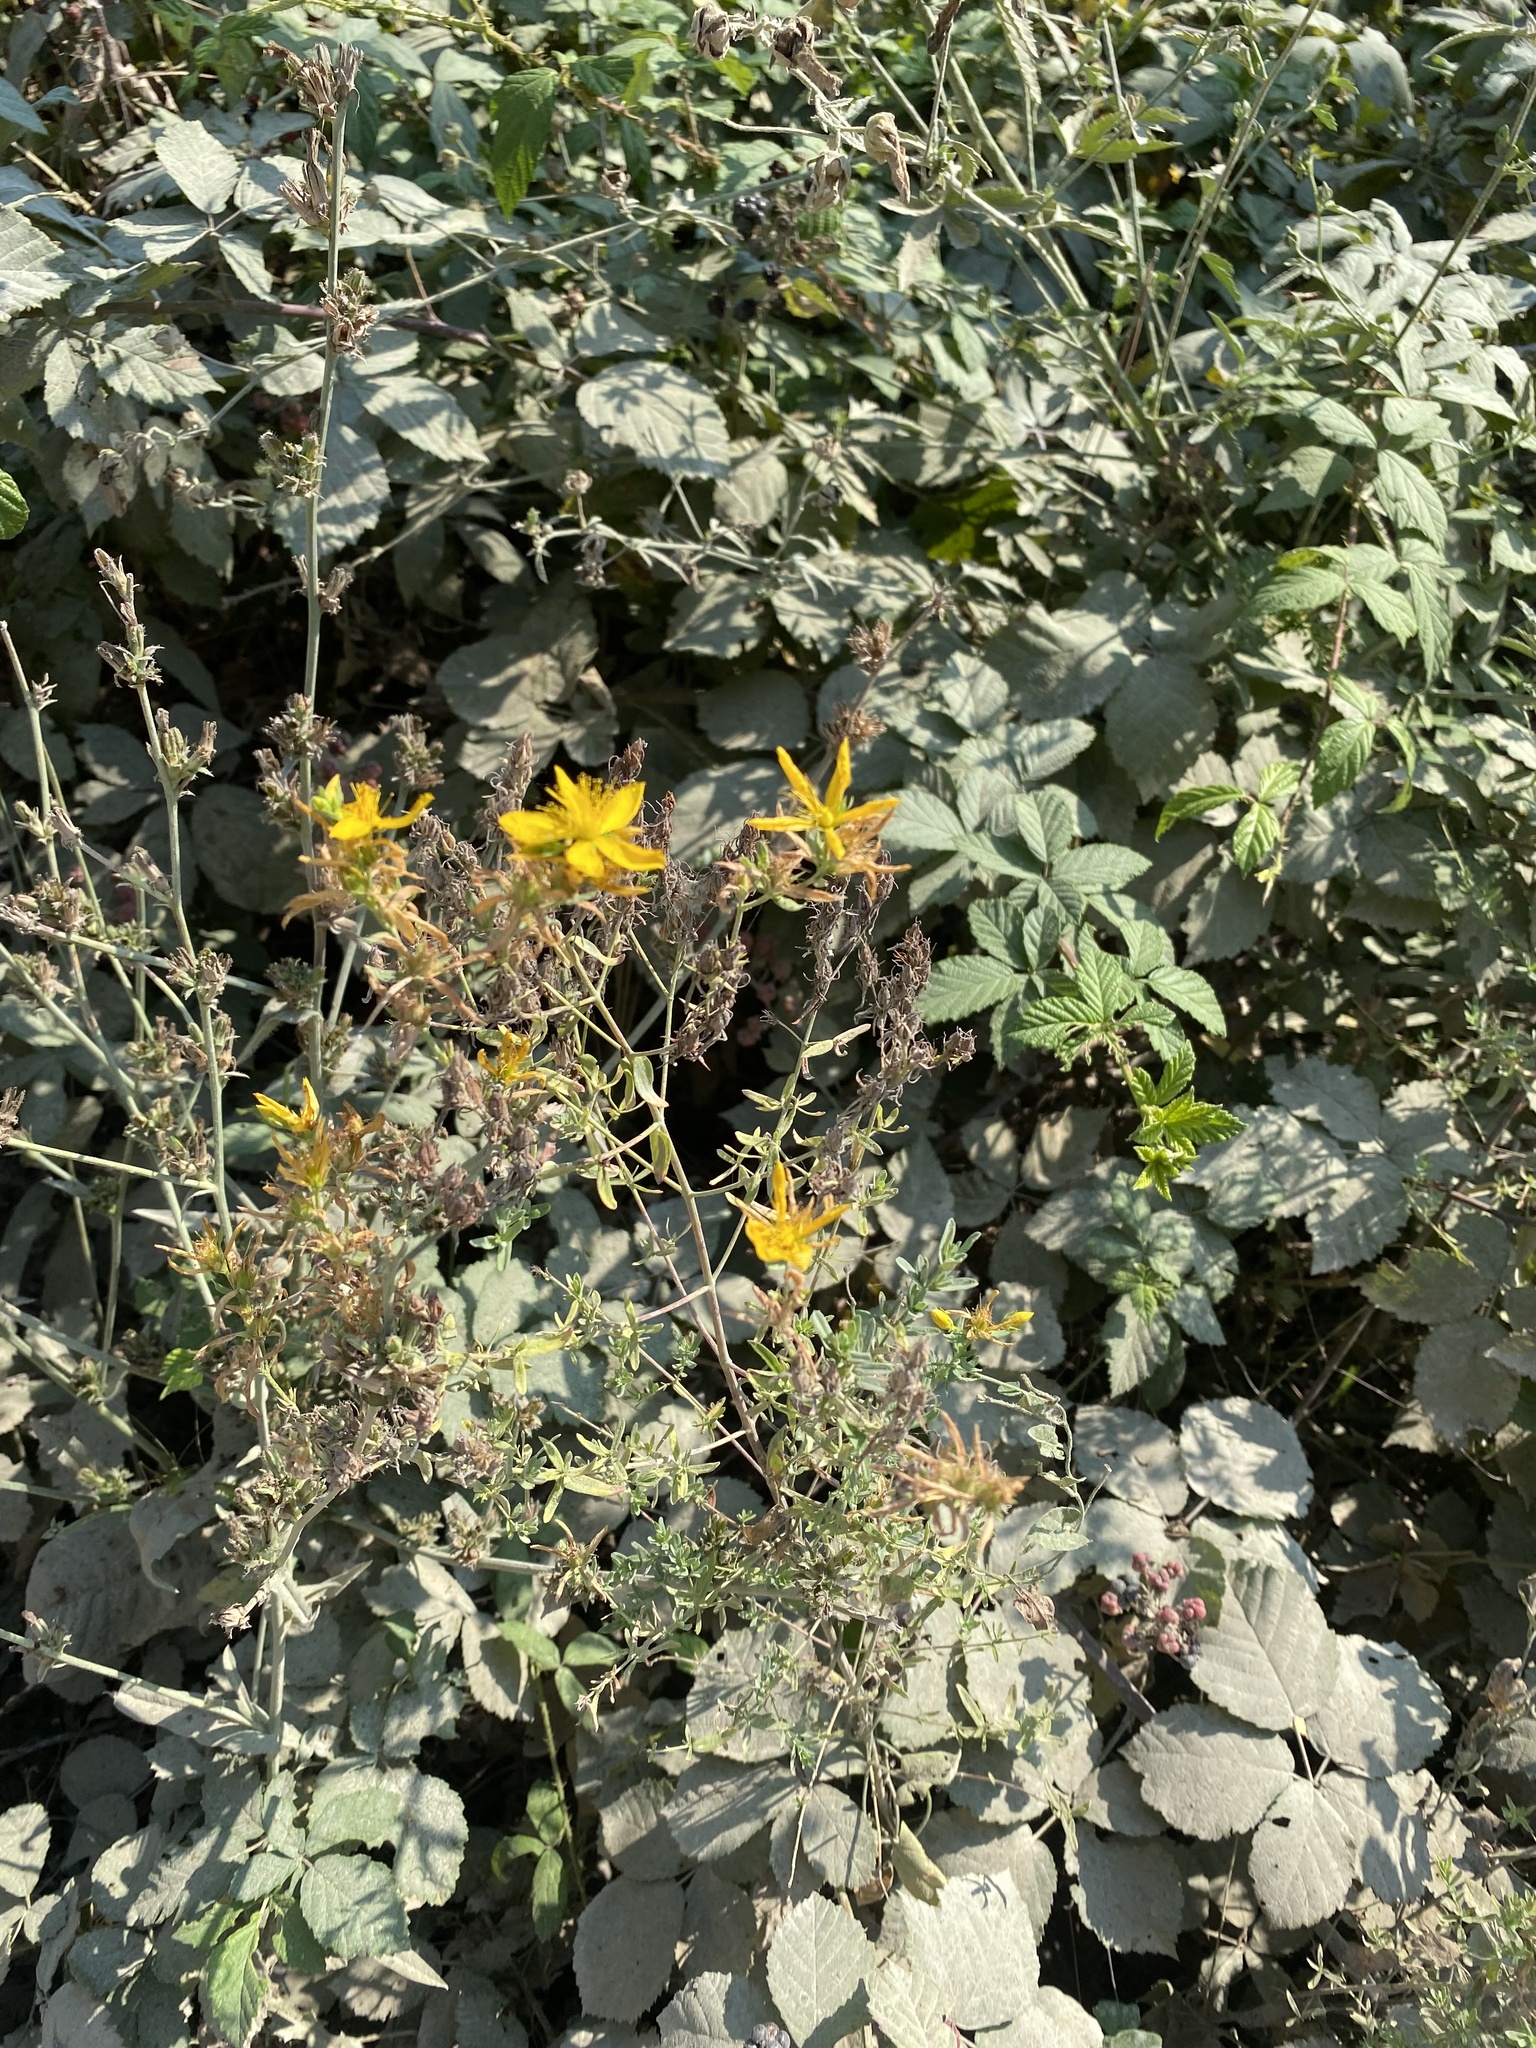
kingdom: Plantae
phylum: Tracheophyta
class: Magnoliopsida
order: Malpighiales
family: Hypericaceae
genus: Hypericum
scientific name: Hypericum perforatum
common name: Common st. johnswort
